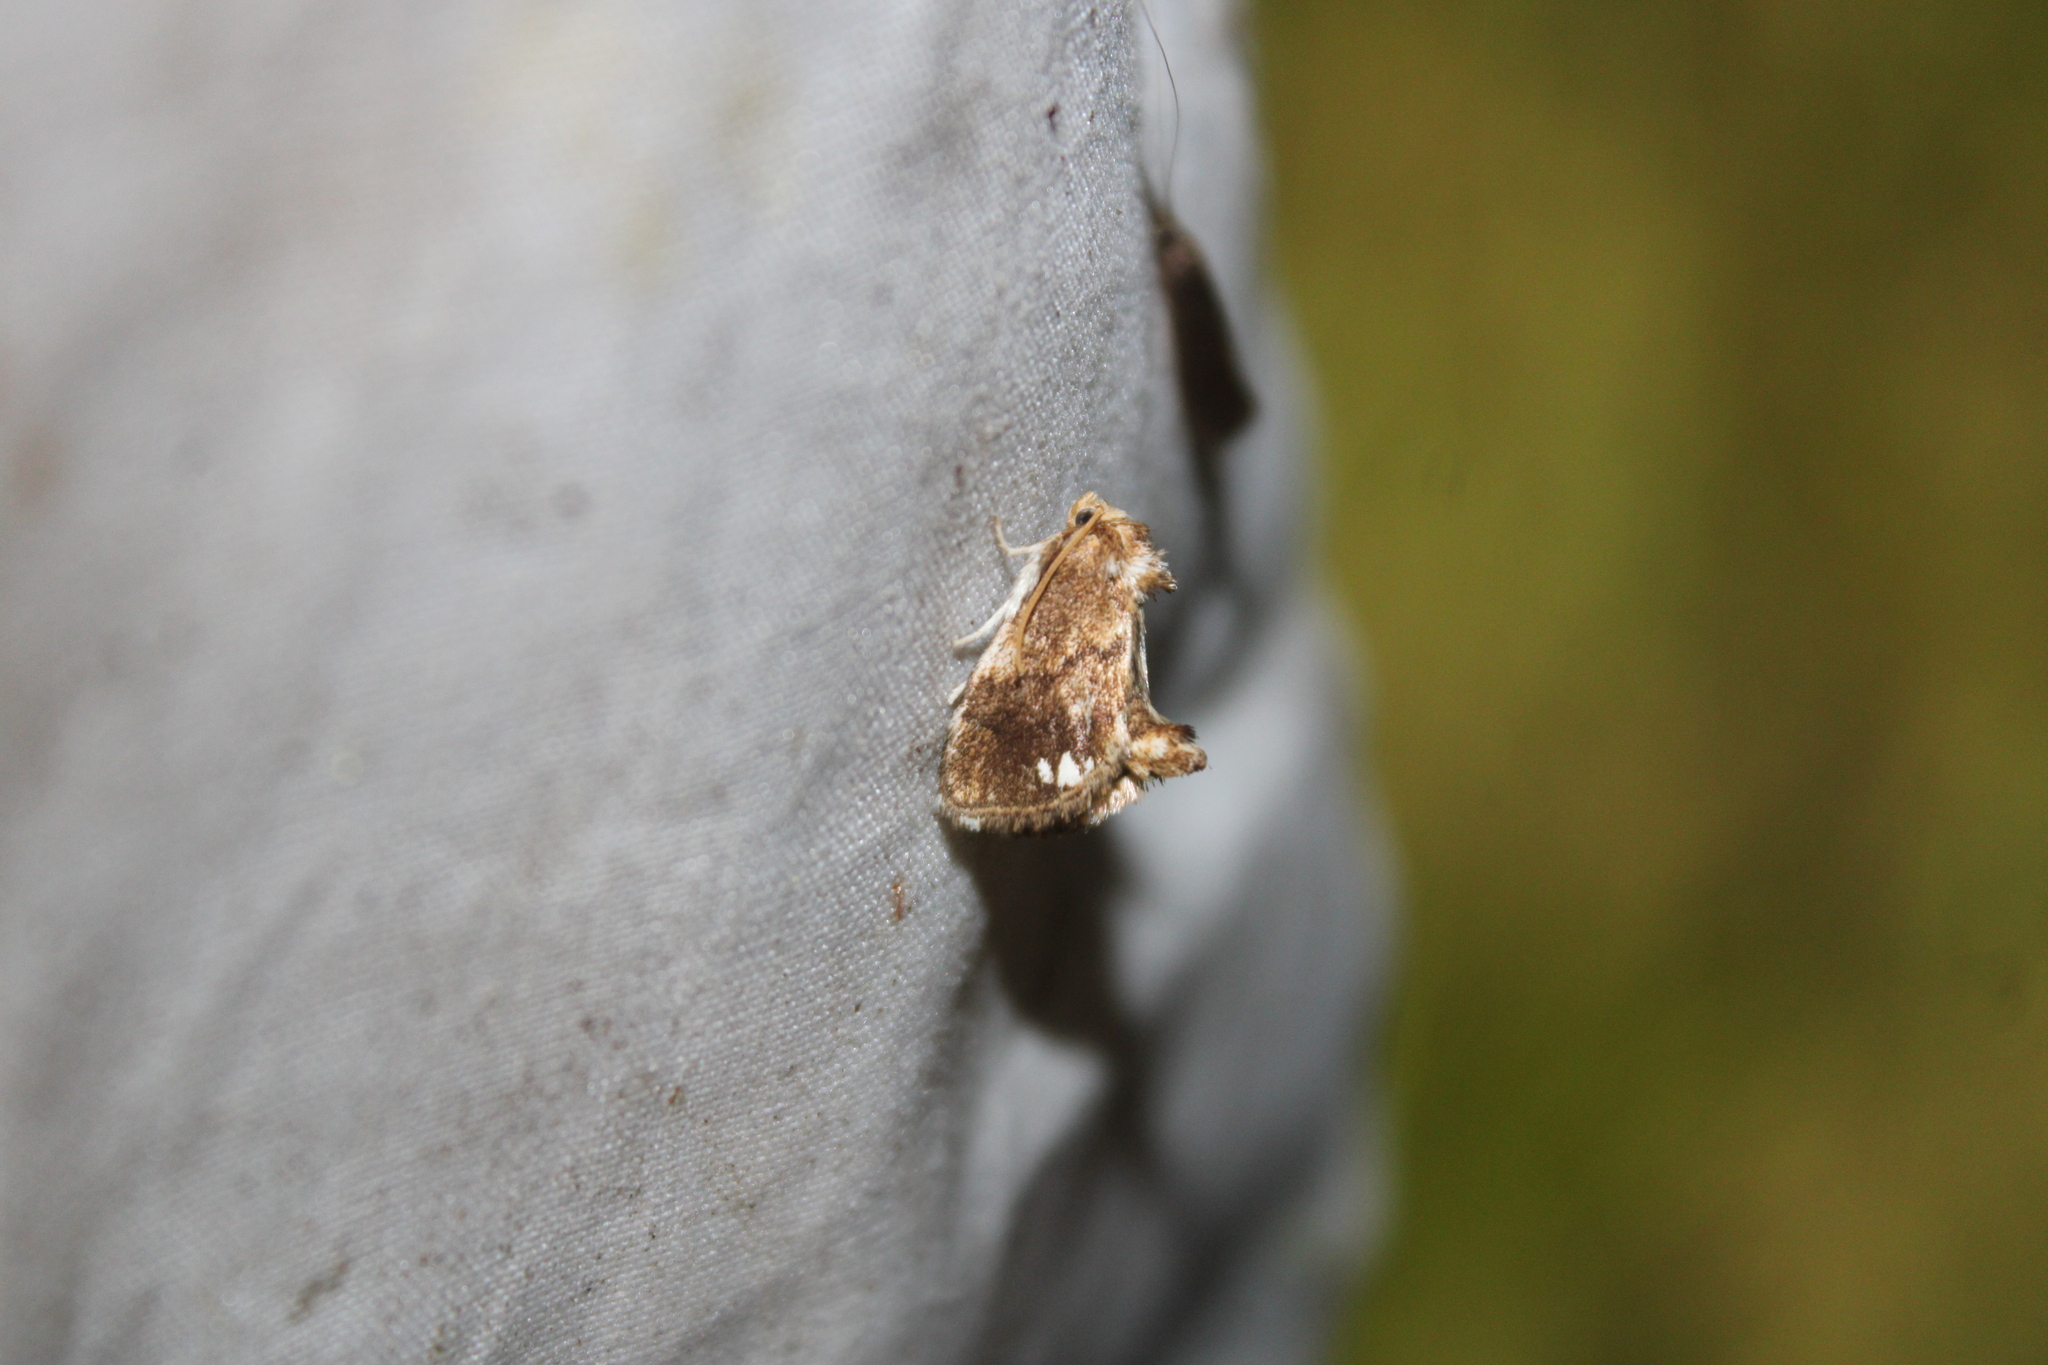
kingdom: Animalia
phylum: Arthropoda
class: Insecta
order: Lepidoptera
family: Limacodidae
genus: Packardia
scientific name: Packardia geminata
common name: Jeweled tailed slug moth
